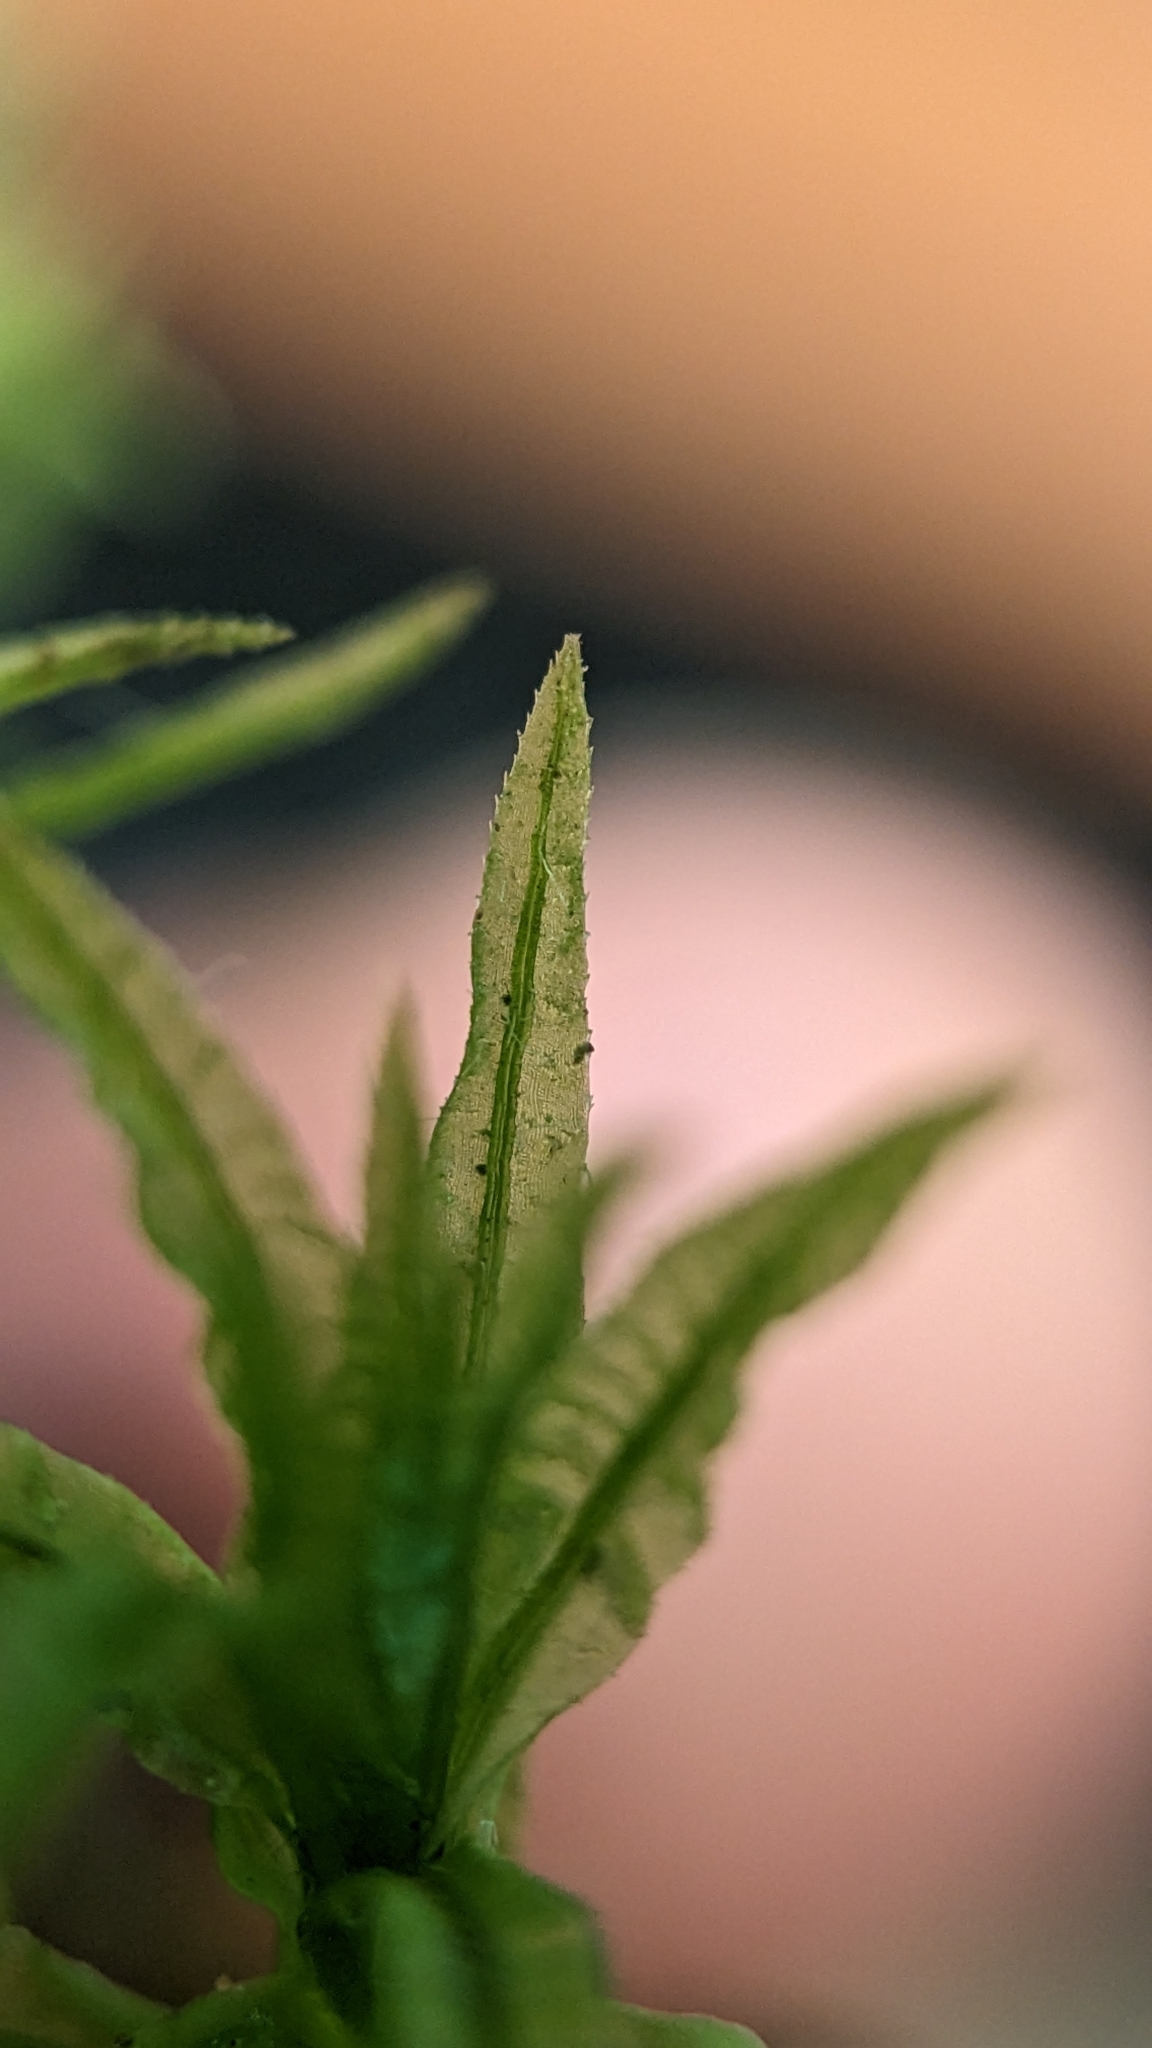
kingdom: Plantae
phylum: Bryophyta
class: Polytrichopsida
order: Polytrichales
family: Polytrichaceae
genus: Atrichum
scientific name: Atrichum undulatum
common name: Common smoothcap
